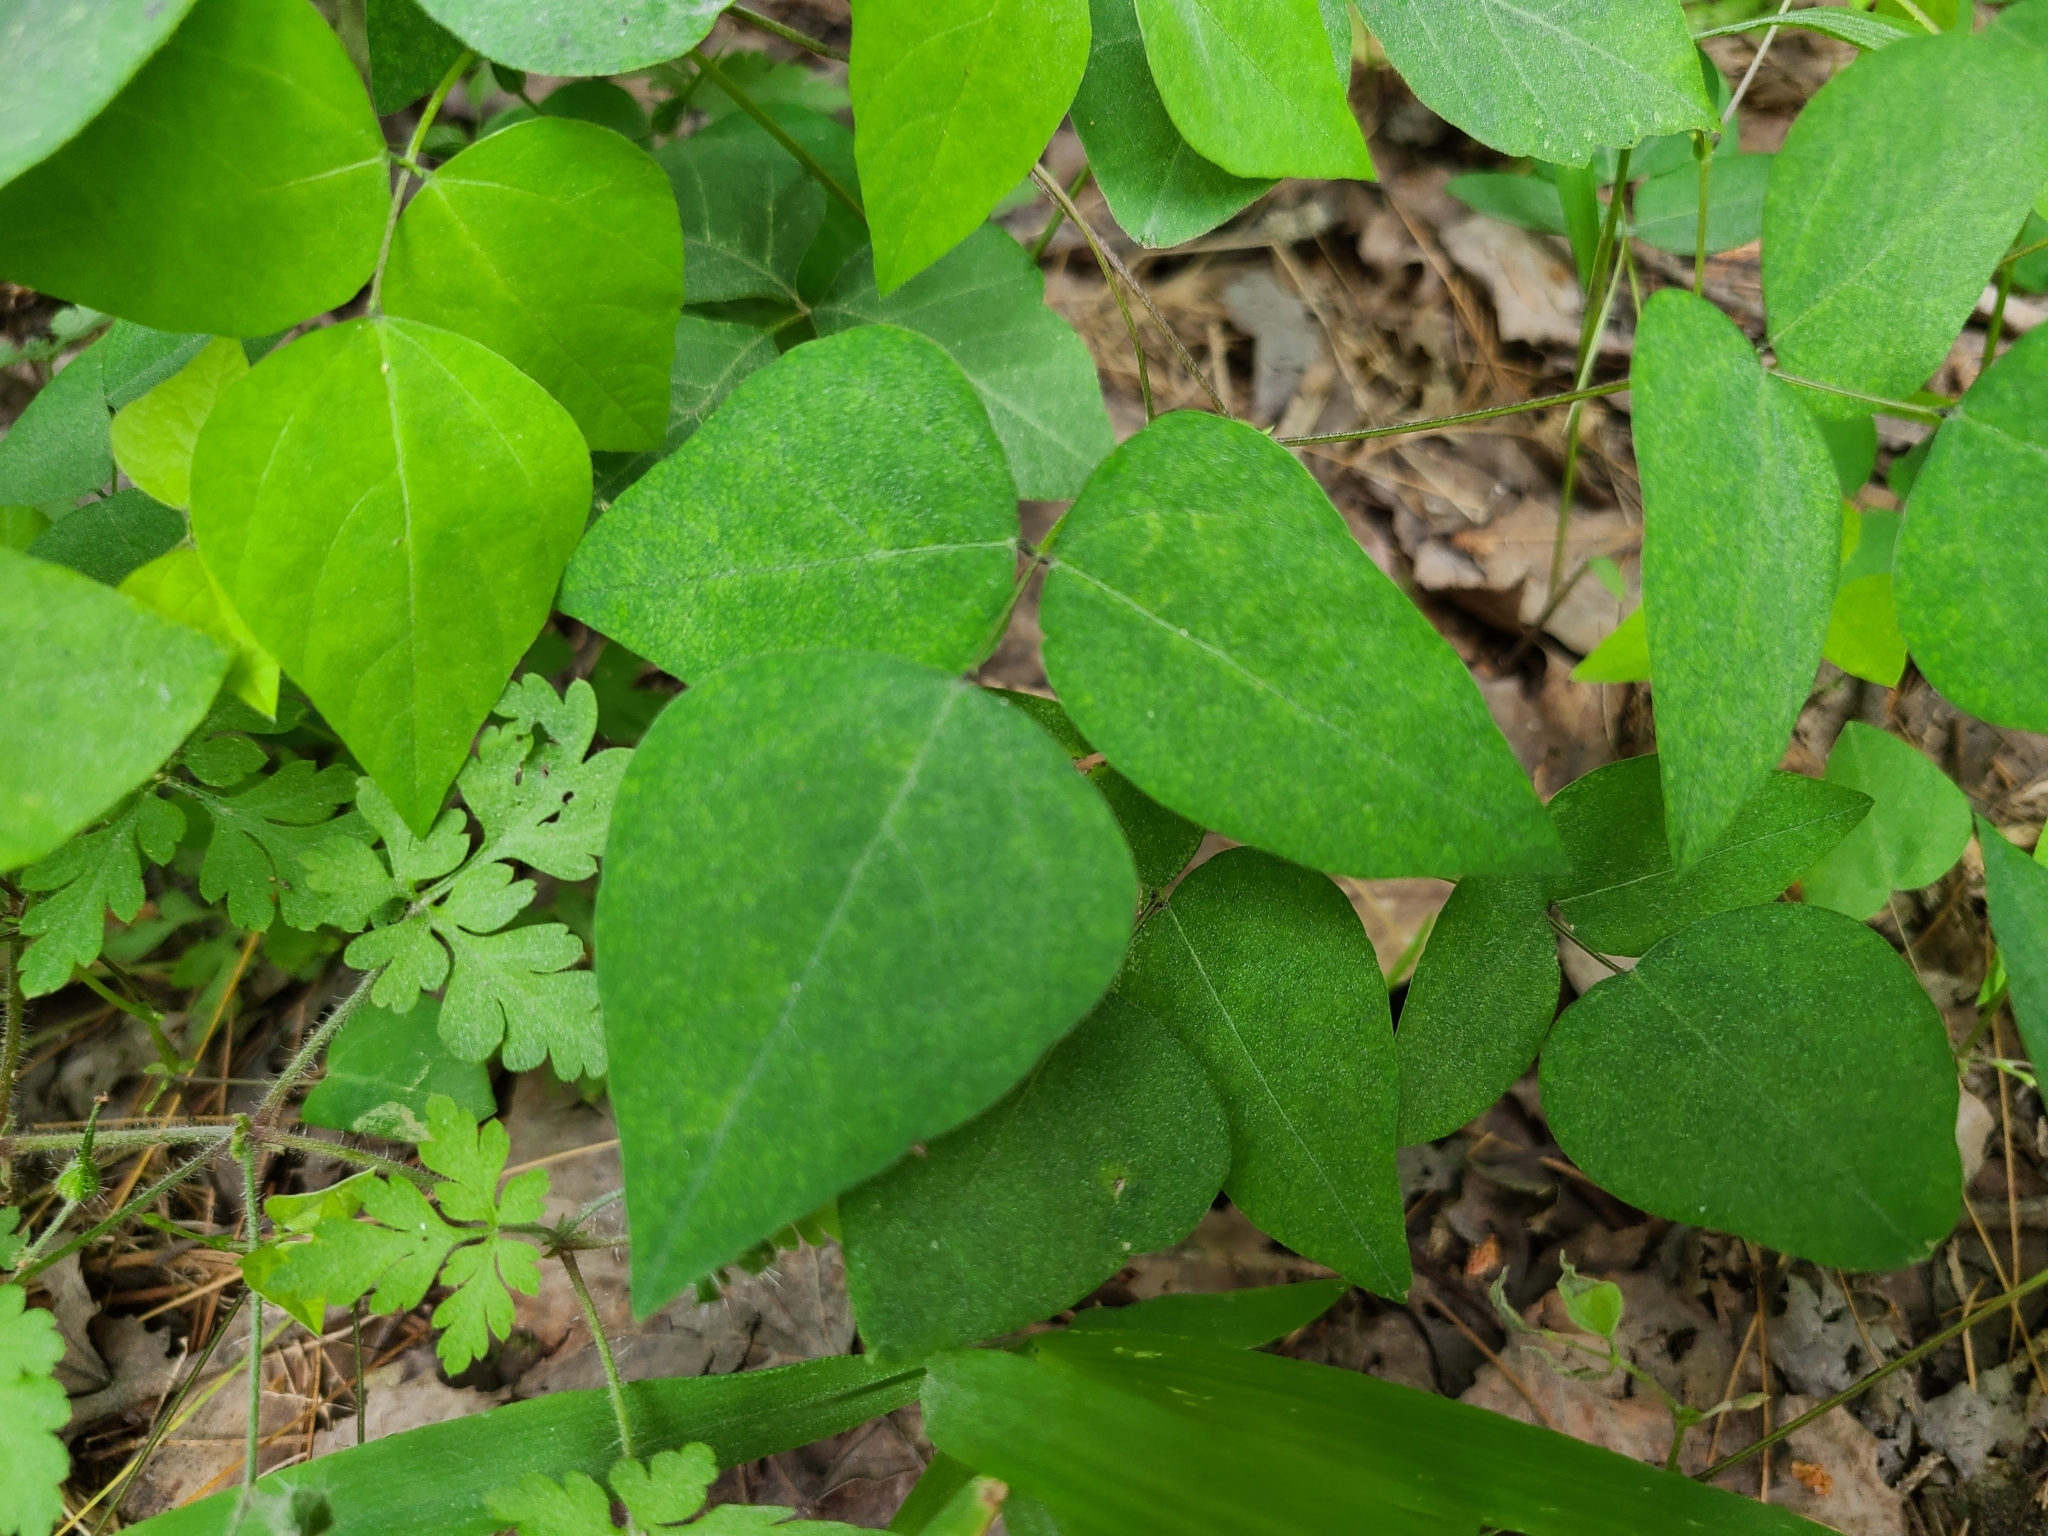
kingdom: Plantae
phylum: Tracheophyta
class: Magnoliopsida
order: Fabales
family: Fabaceae
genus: Amphicarpaea
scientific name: Amphicarpaea bracteata
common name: American hog peanut
